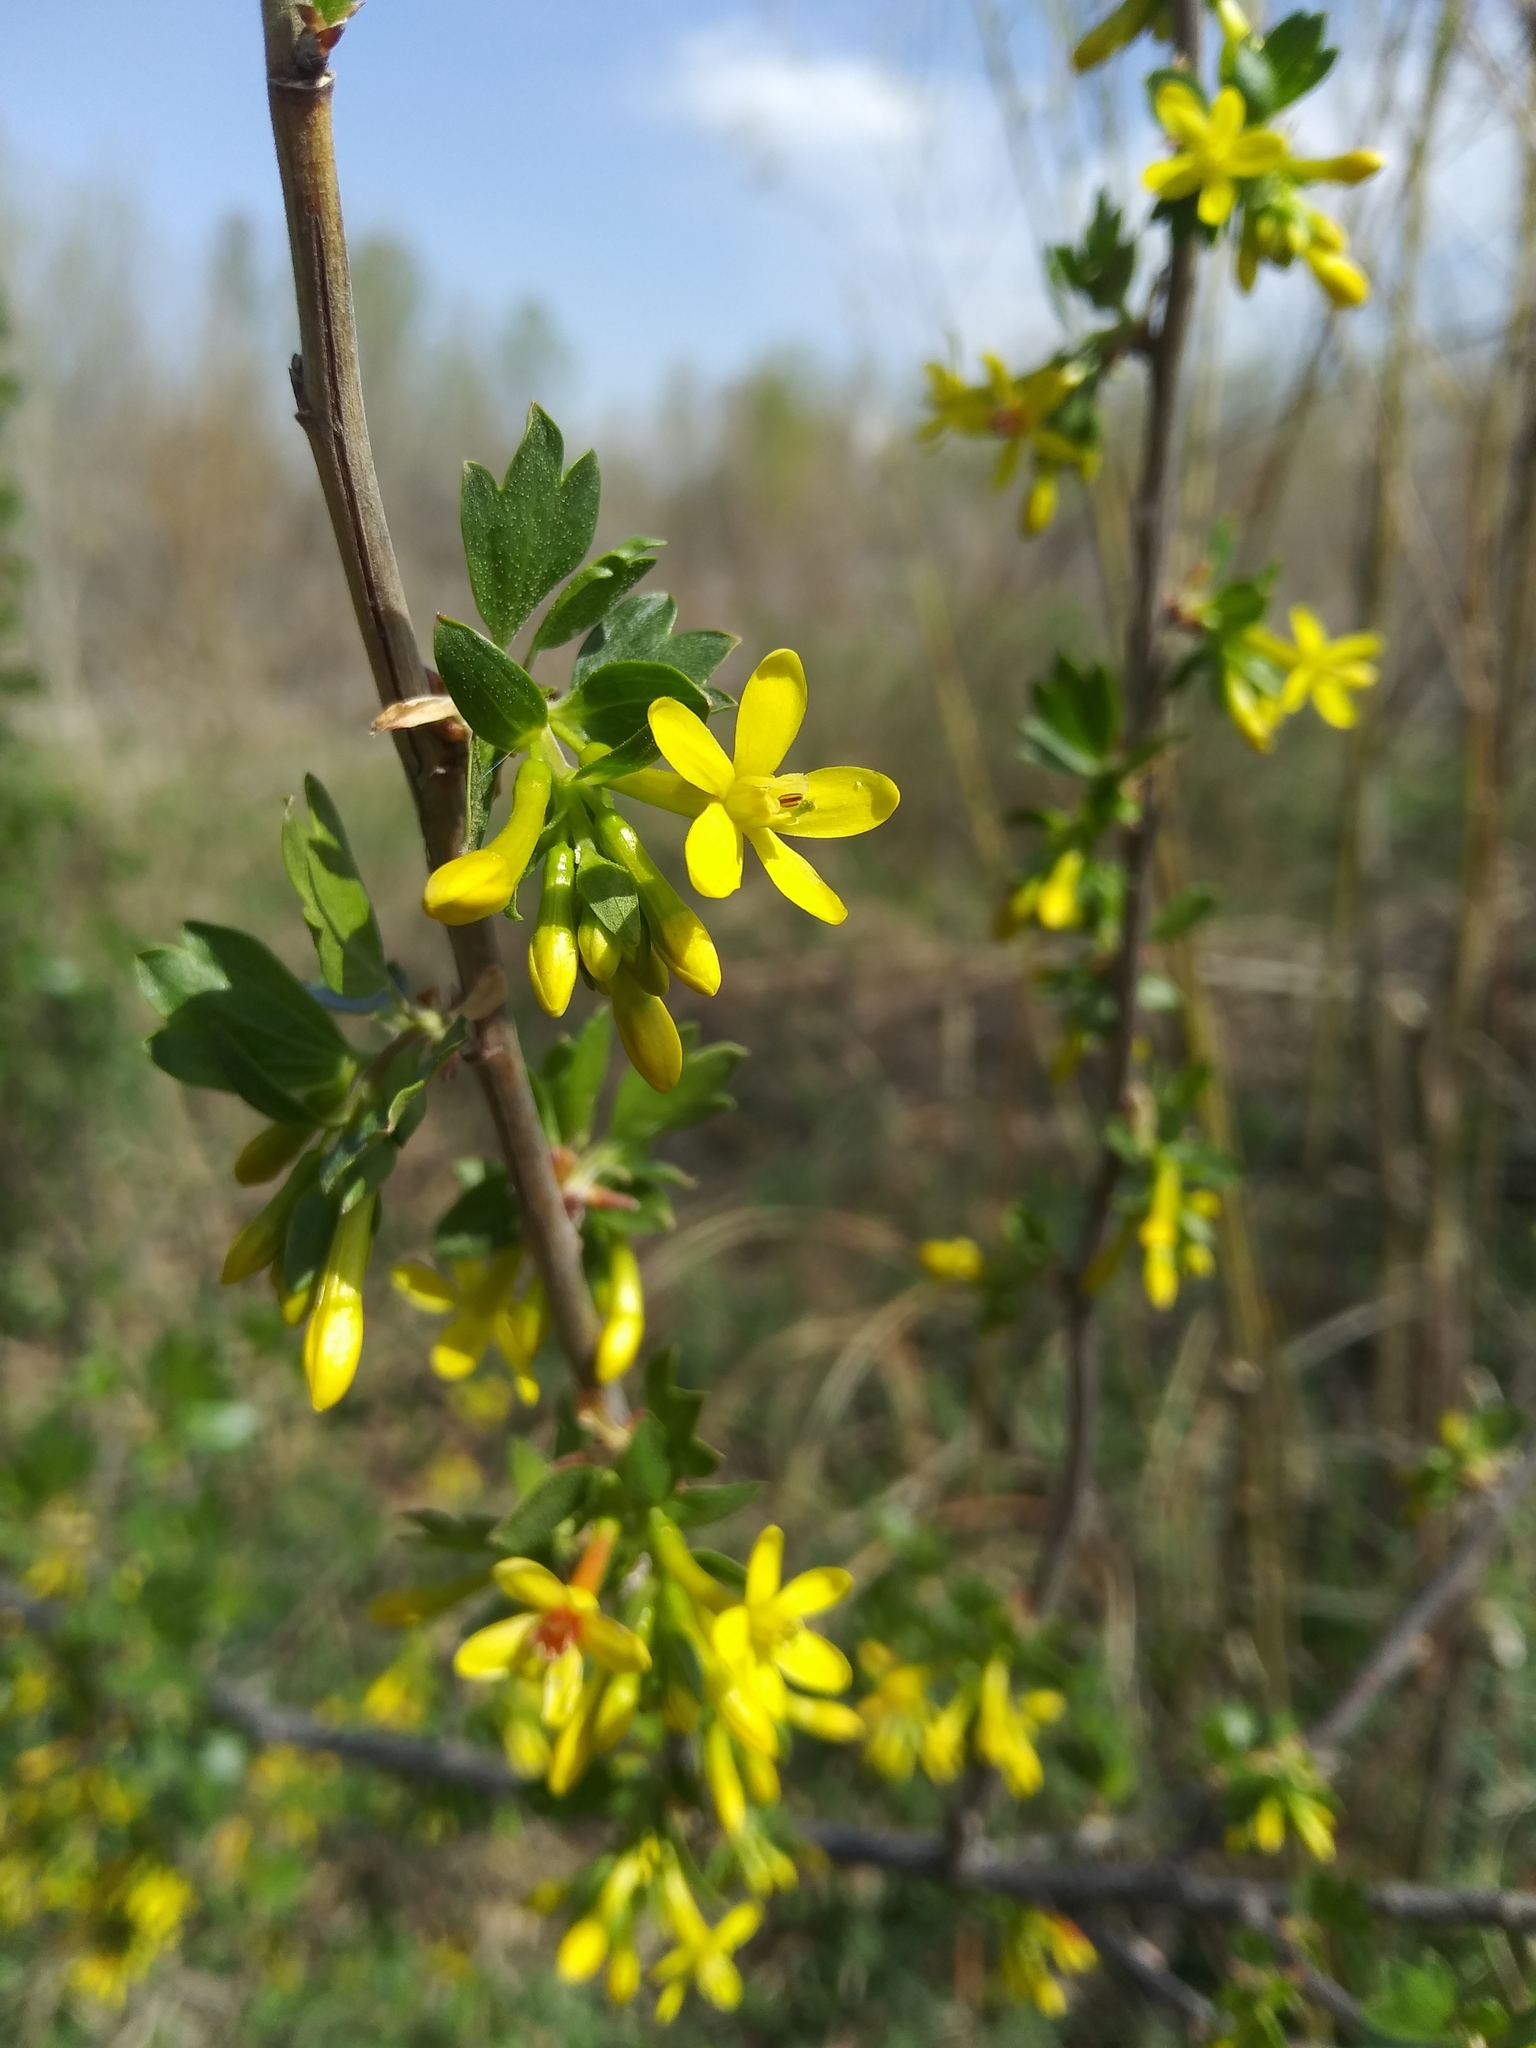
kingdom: Plantae
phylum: Tracheophyta
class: Magnoliopsida
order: Saxifragales
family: Grossulariaceae
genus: Ribes
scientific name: Ribes aureum
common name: Golden currant
